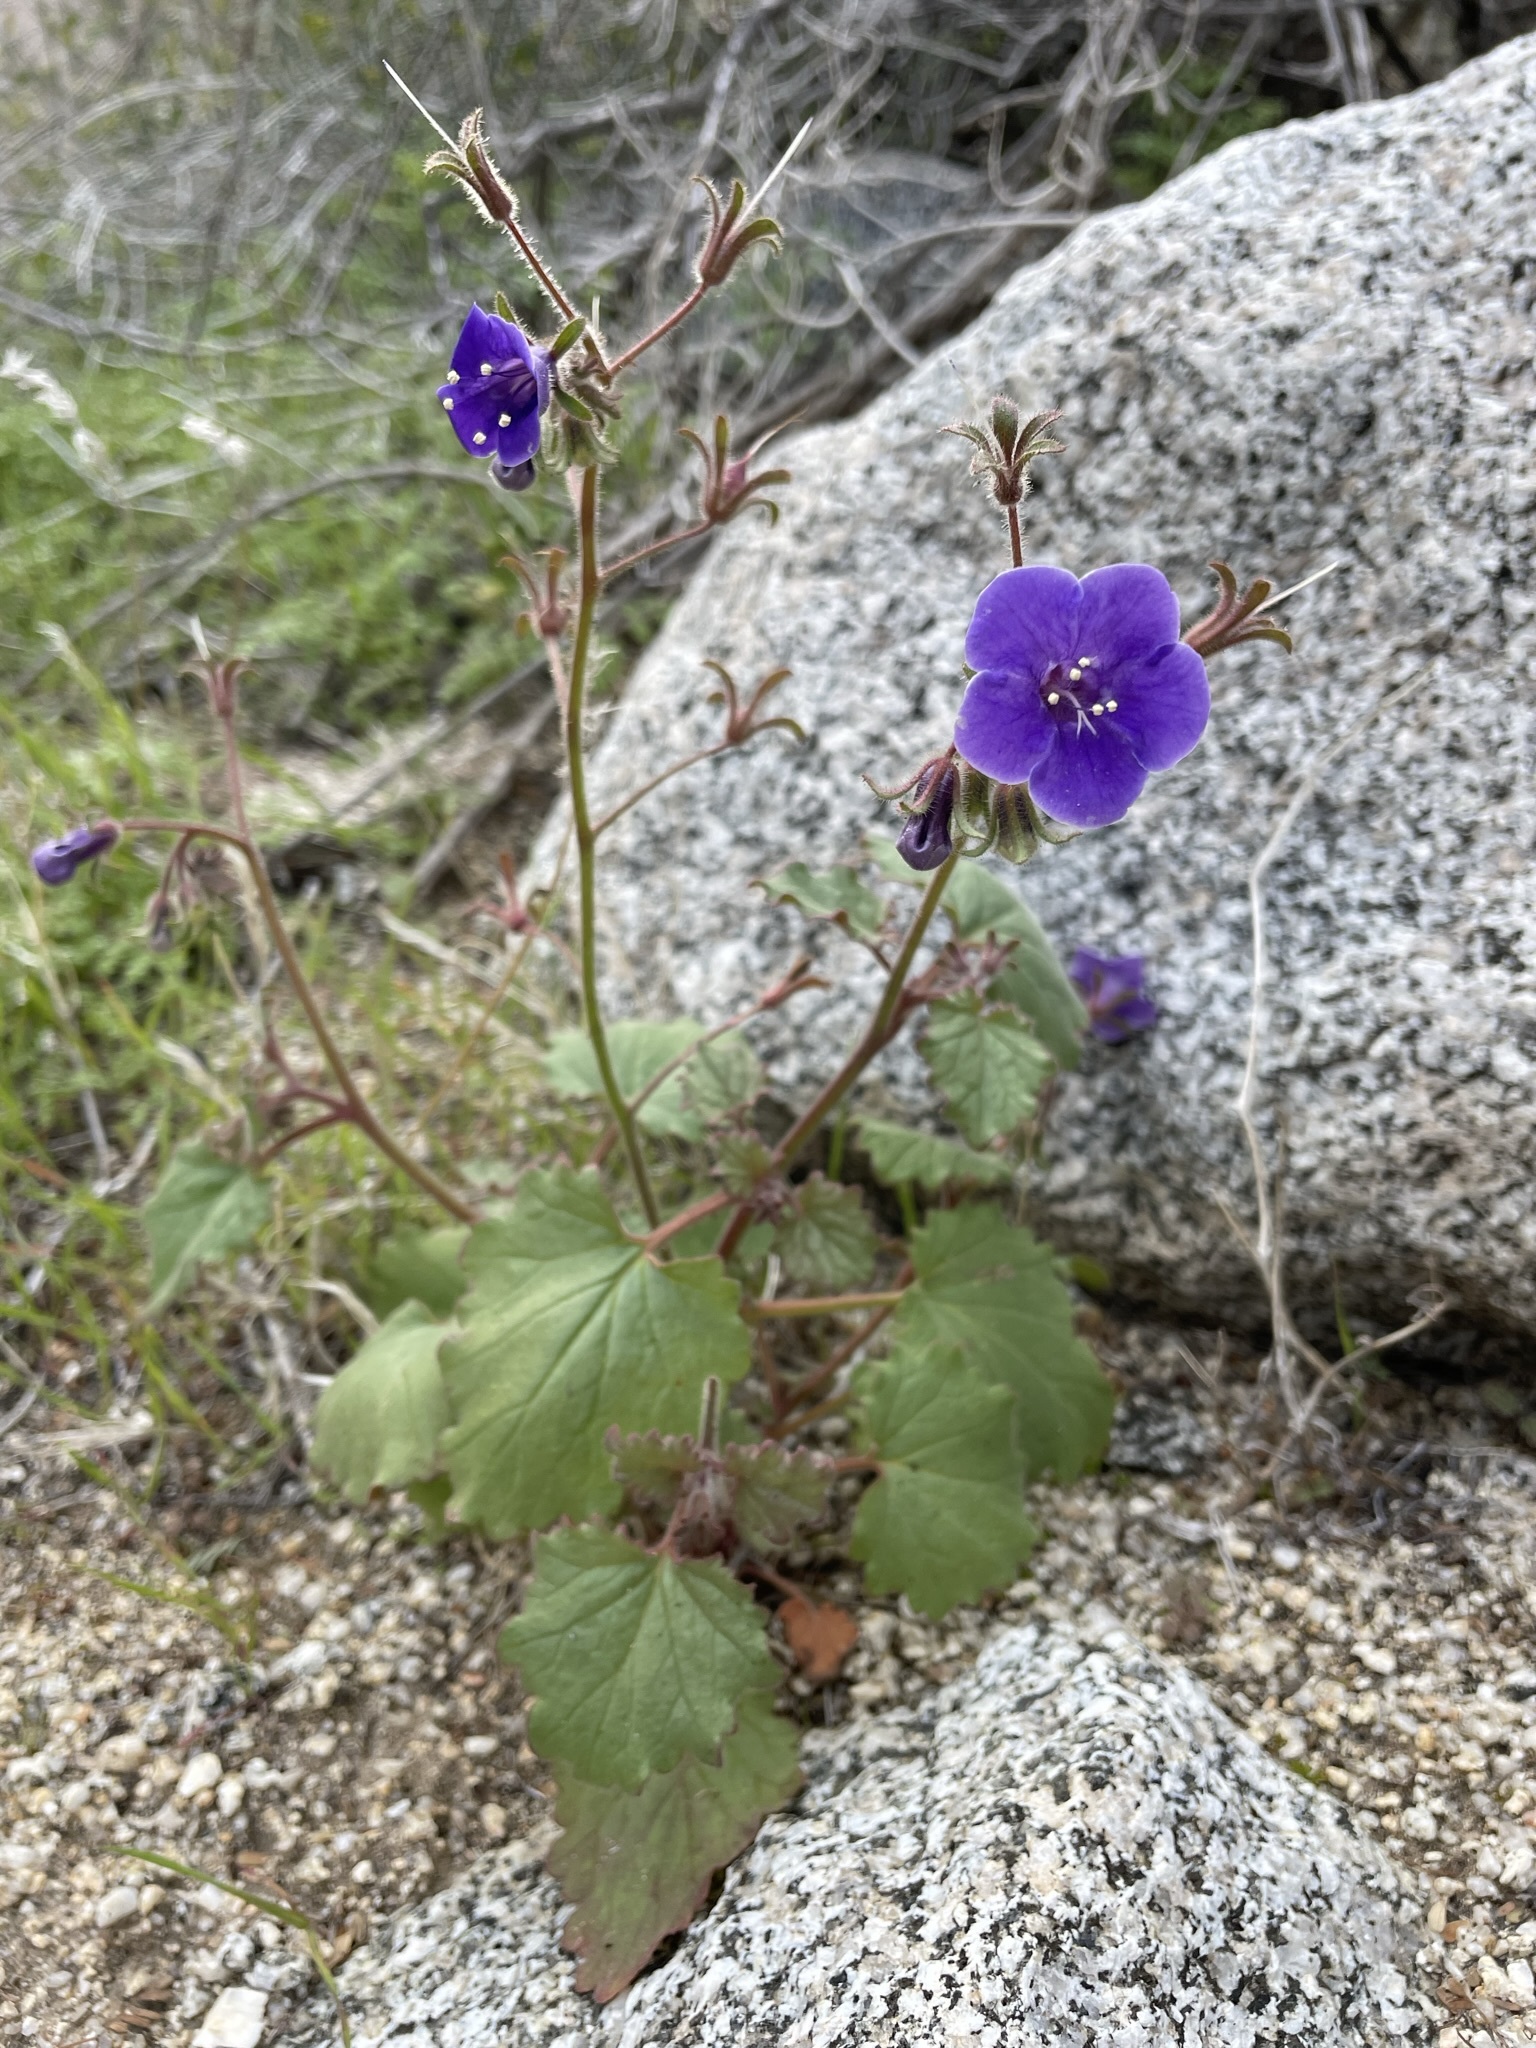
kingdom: Plantae
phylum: Tracheophyta
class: Magnoliopsida
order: Boraginales
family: Hydrophyllaceae
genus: Phacelia
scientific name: Phacelia minor
